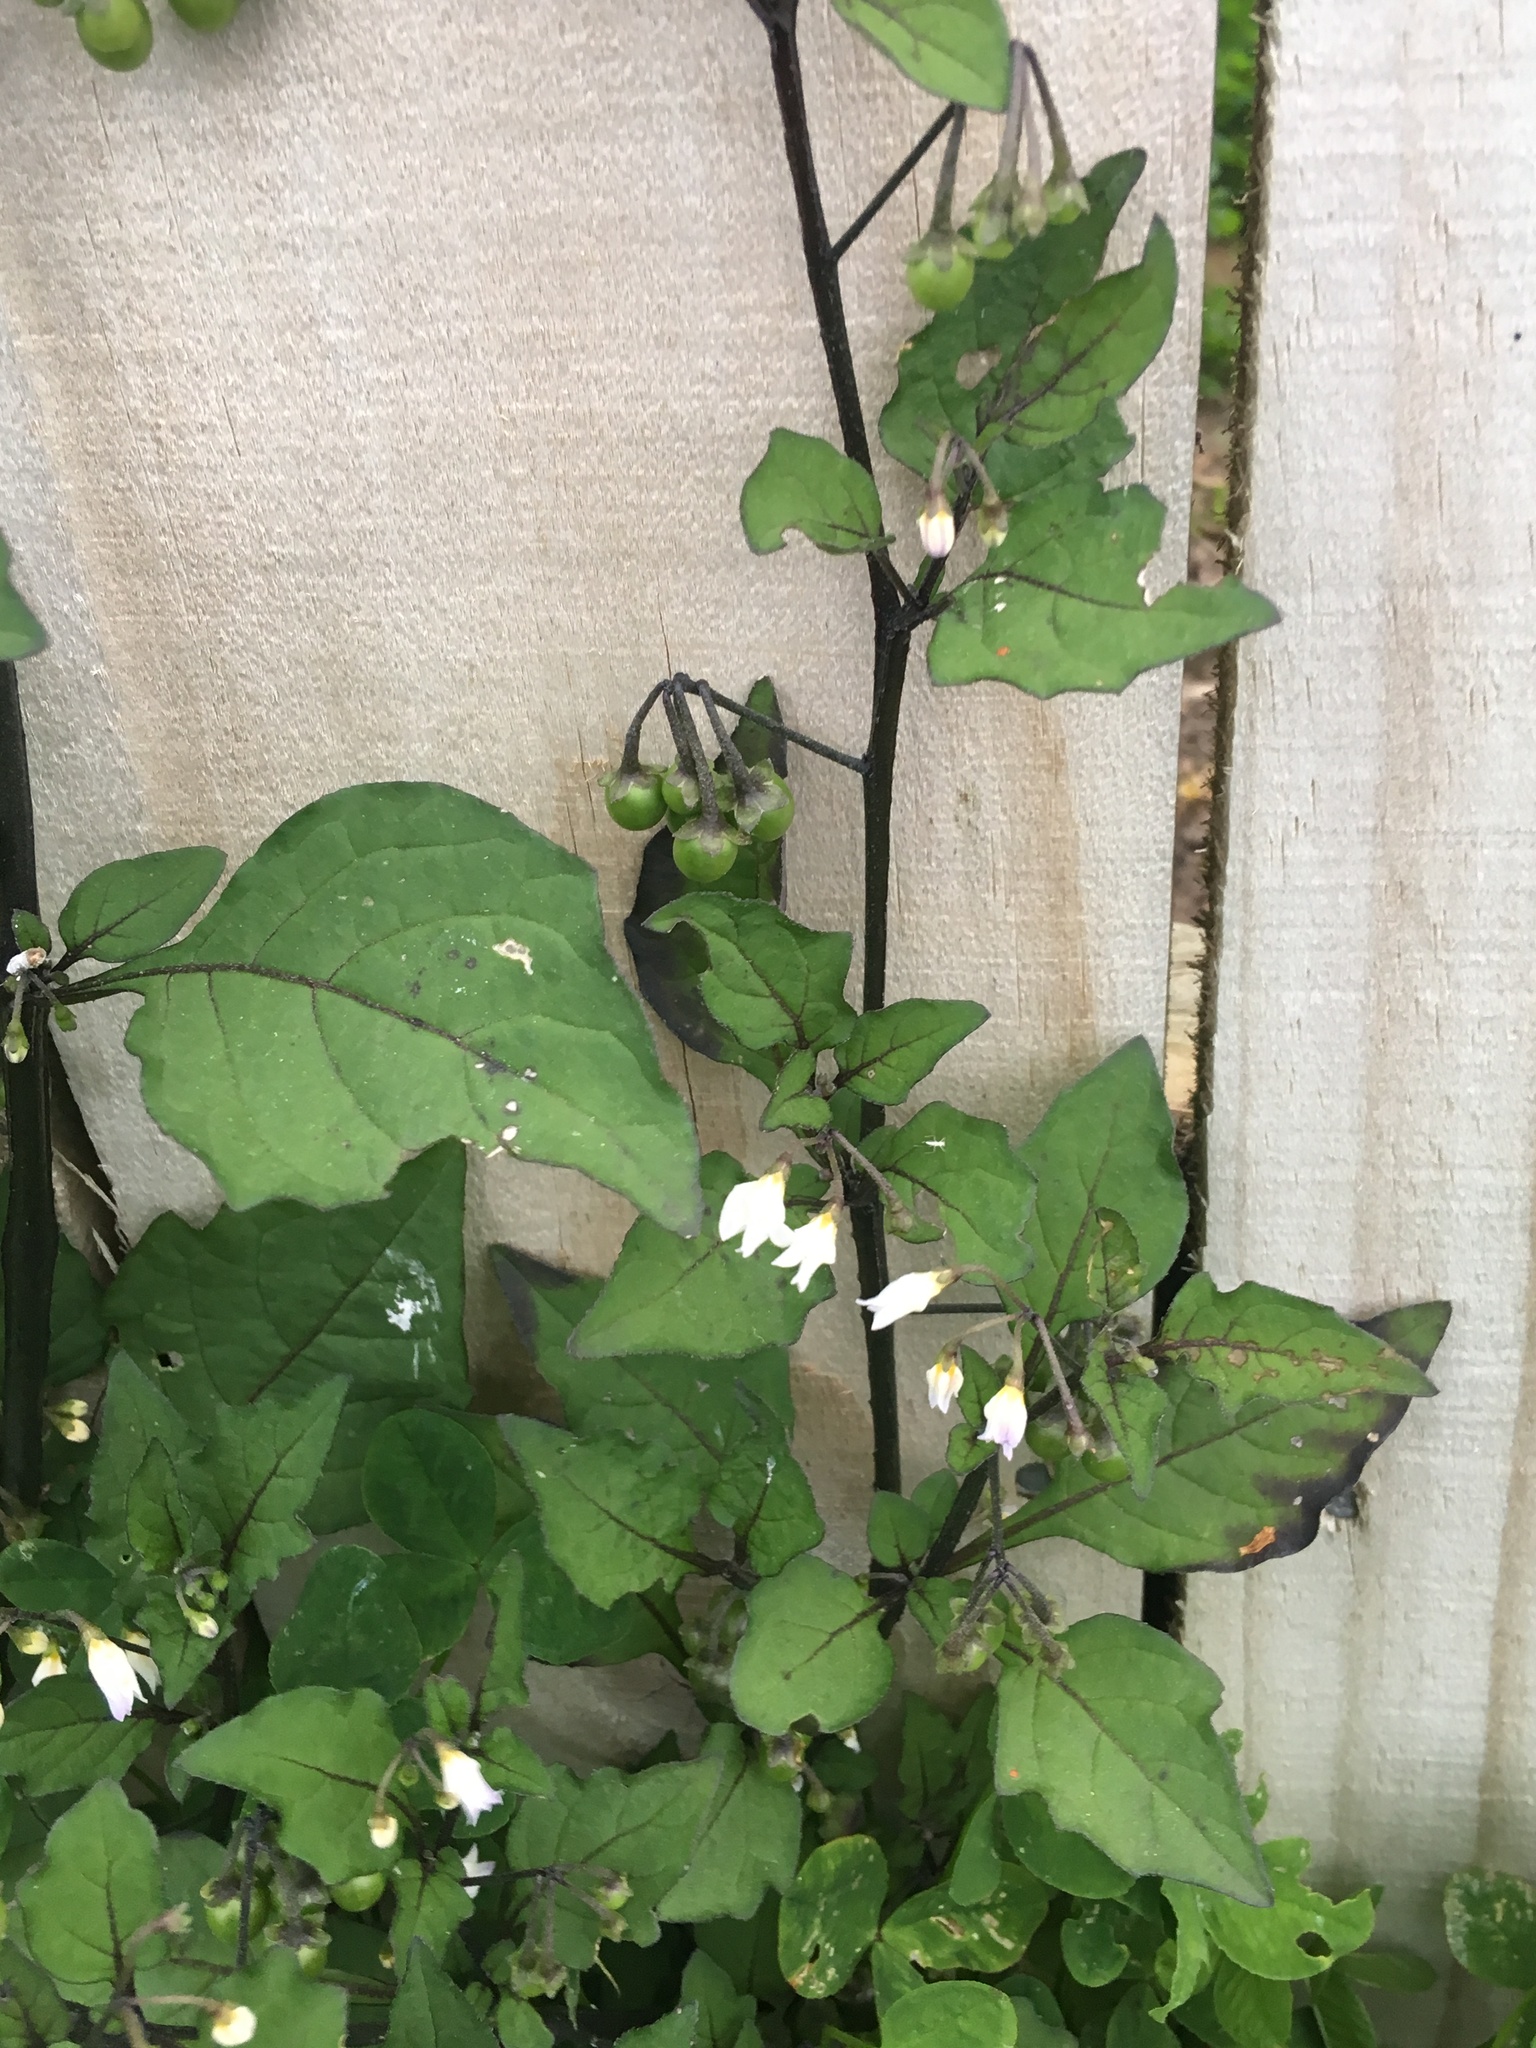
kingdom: Plantae
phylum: Tracheophyta
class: Magnoliopsida
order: Solanales
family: Solanaceae
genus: Solanum
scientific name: Solanum nigrum
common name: Black nightshade
